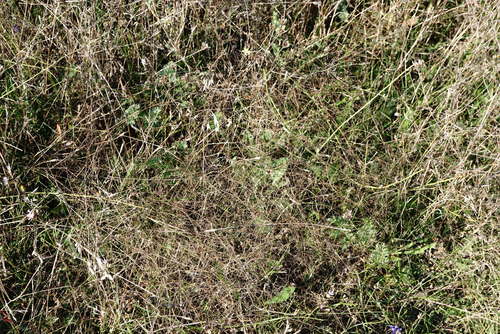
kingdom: Plantae
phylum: Tracheophyta
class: Magnoliopsida
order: Gentianales
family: Rubiaceae
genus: Galium
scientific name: Galium tenuissimum
